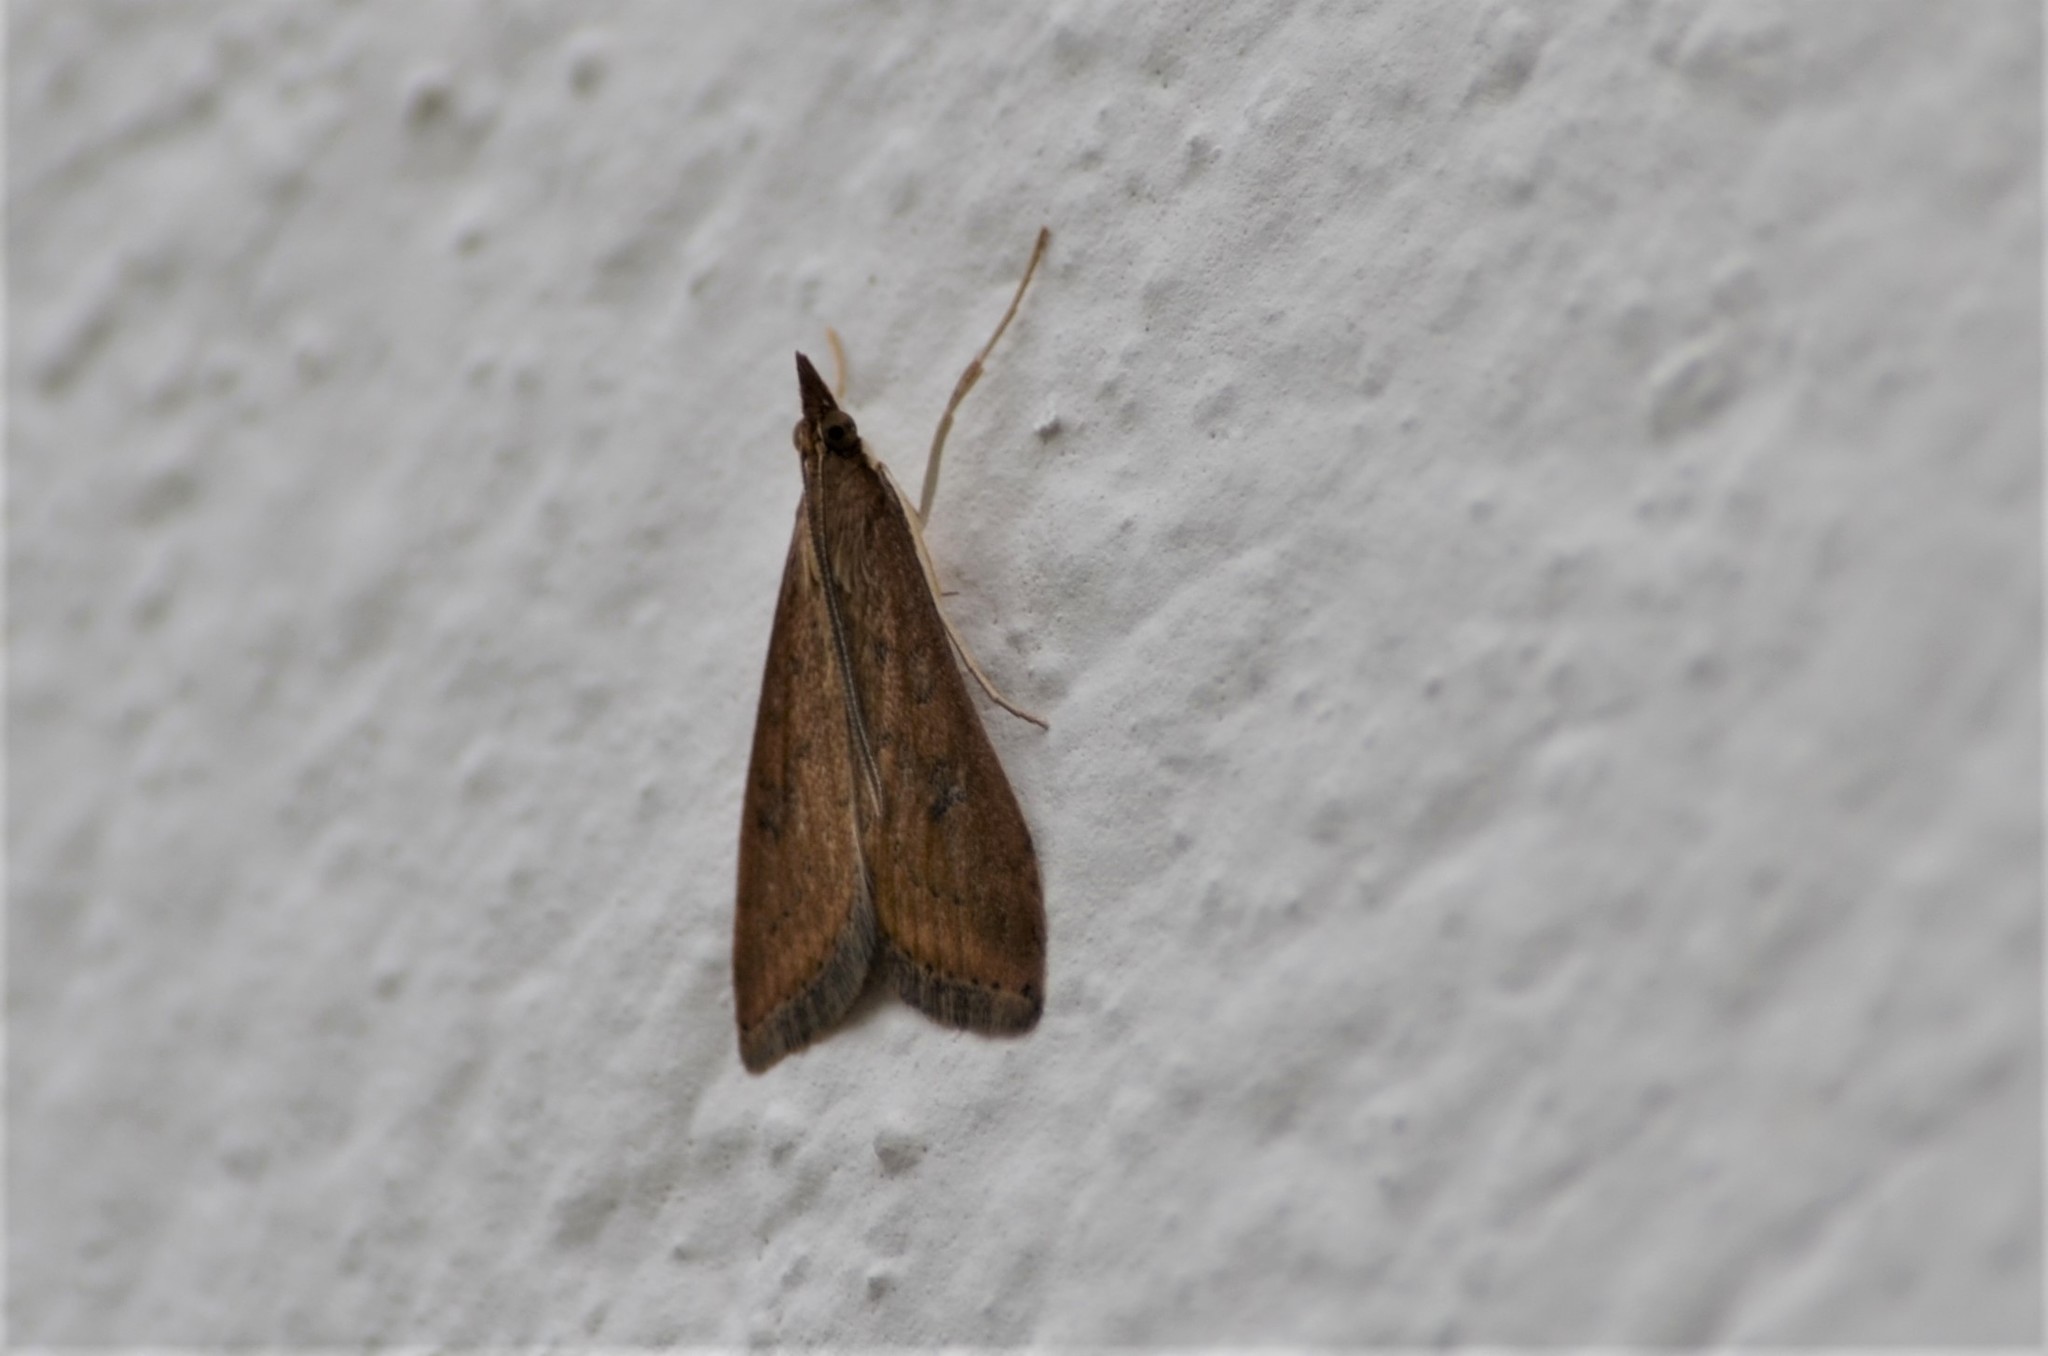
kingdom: Animalia
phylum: Arthropoda
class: Insecta
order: Lepidoptera
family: Crambidae
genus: Udea
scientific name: Udea ferrugalis
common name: Rusty dot
